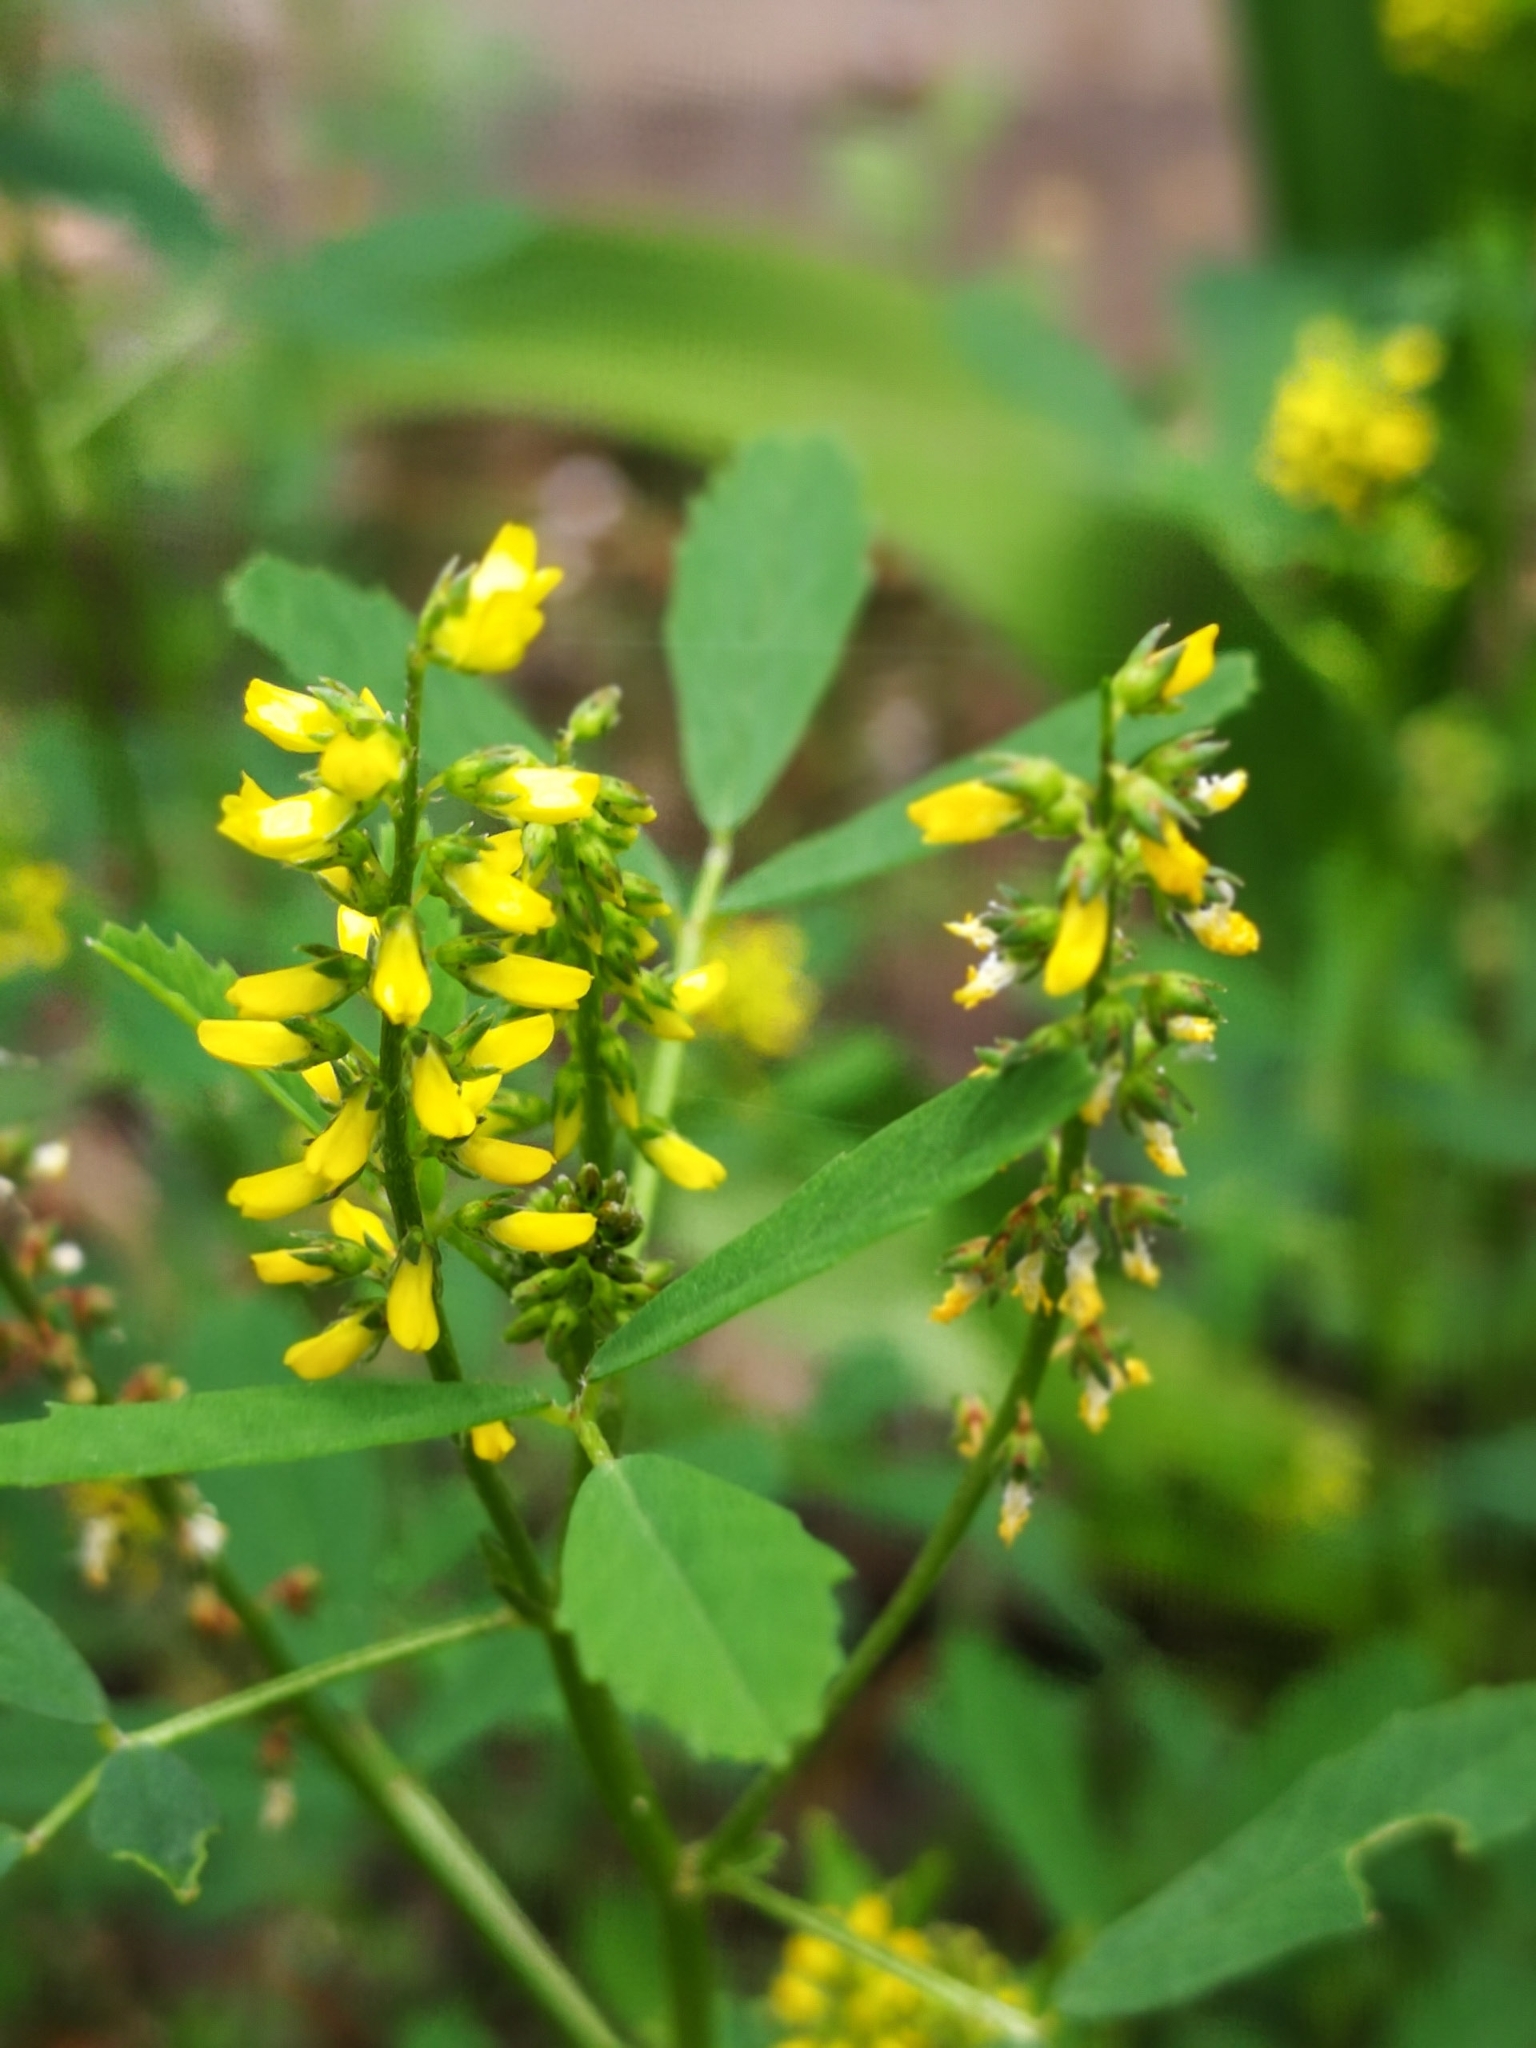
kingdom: Plantae
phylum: Tracheophyta
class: Magnoliopsida
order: Fabales
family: Fabaceae
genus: Melilotus
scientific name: Melilotus indicus
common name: Small melilot
